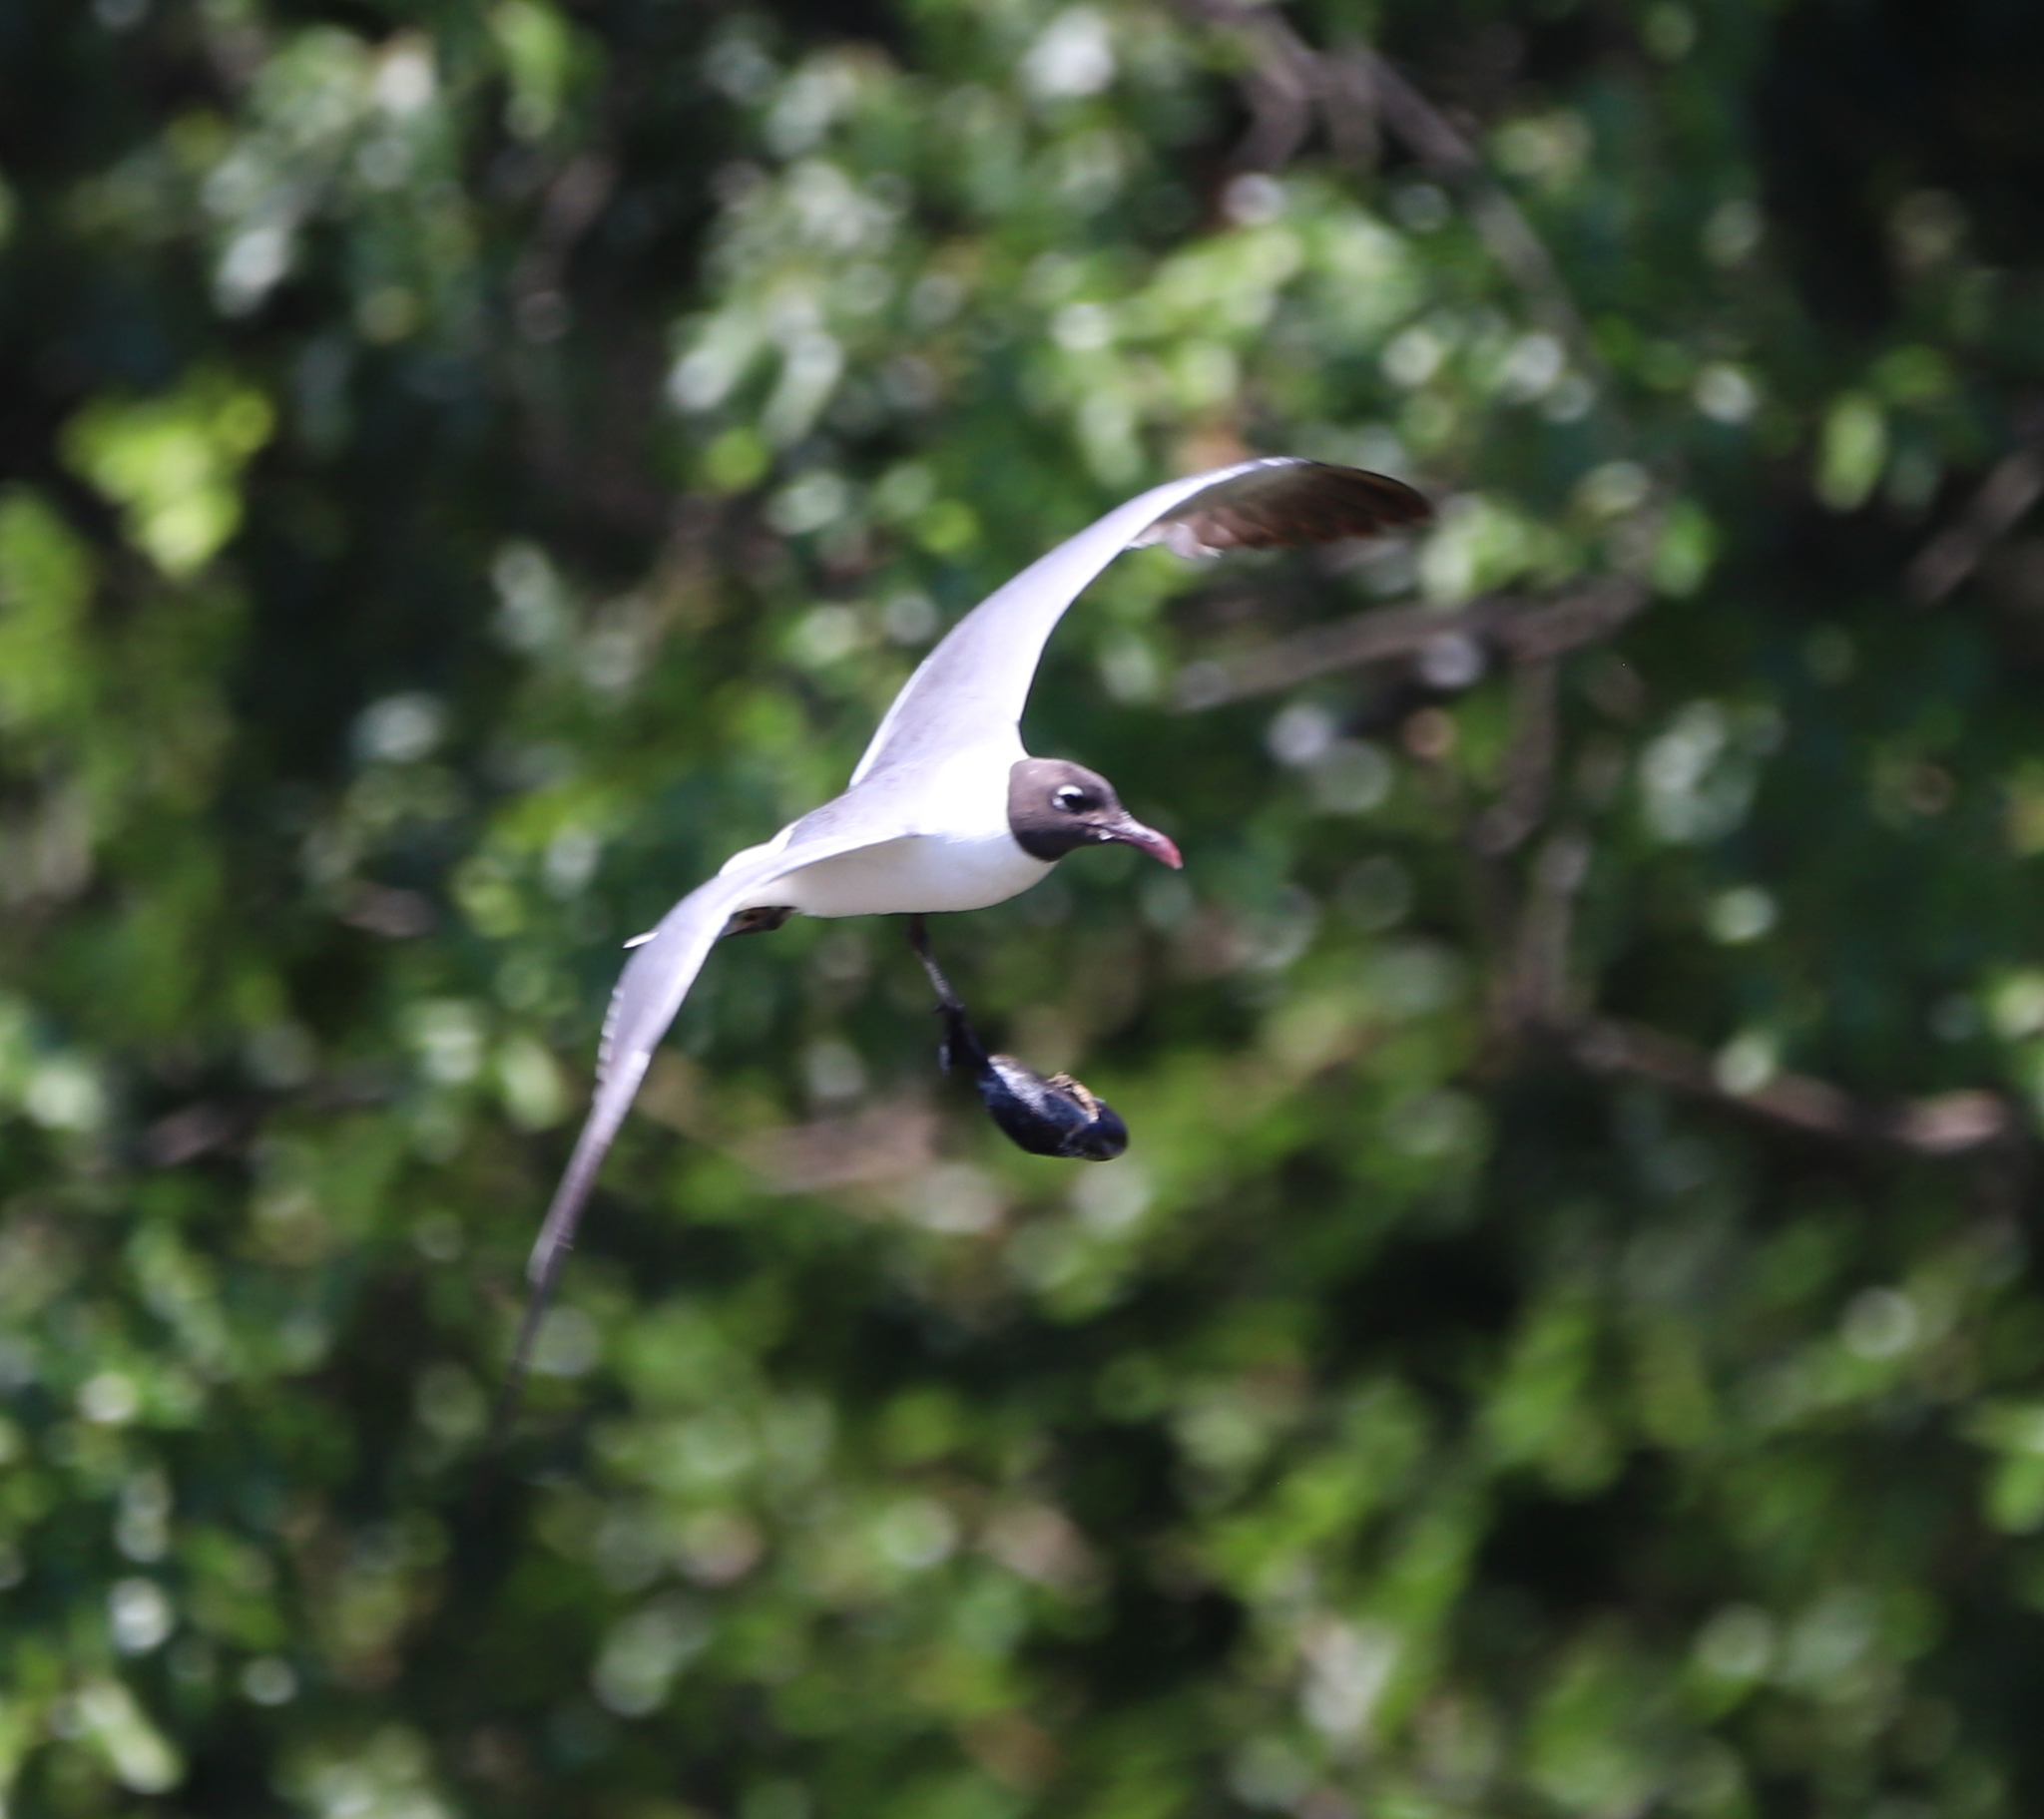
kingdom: Animalia
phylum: Mollusca
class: Bivalvia
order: Mytilida
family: Mytilidae
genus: Geukensia
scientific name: Geukensia demissa
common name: Ribbed mussel
